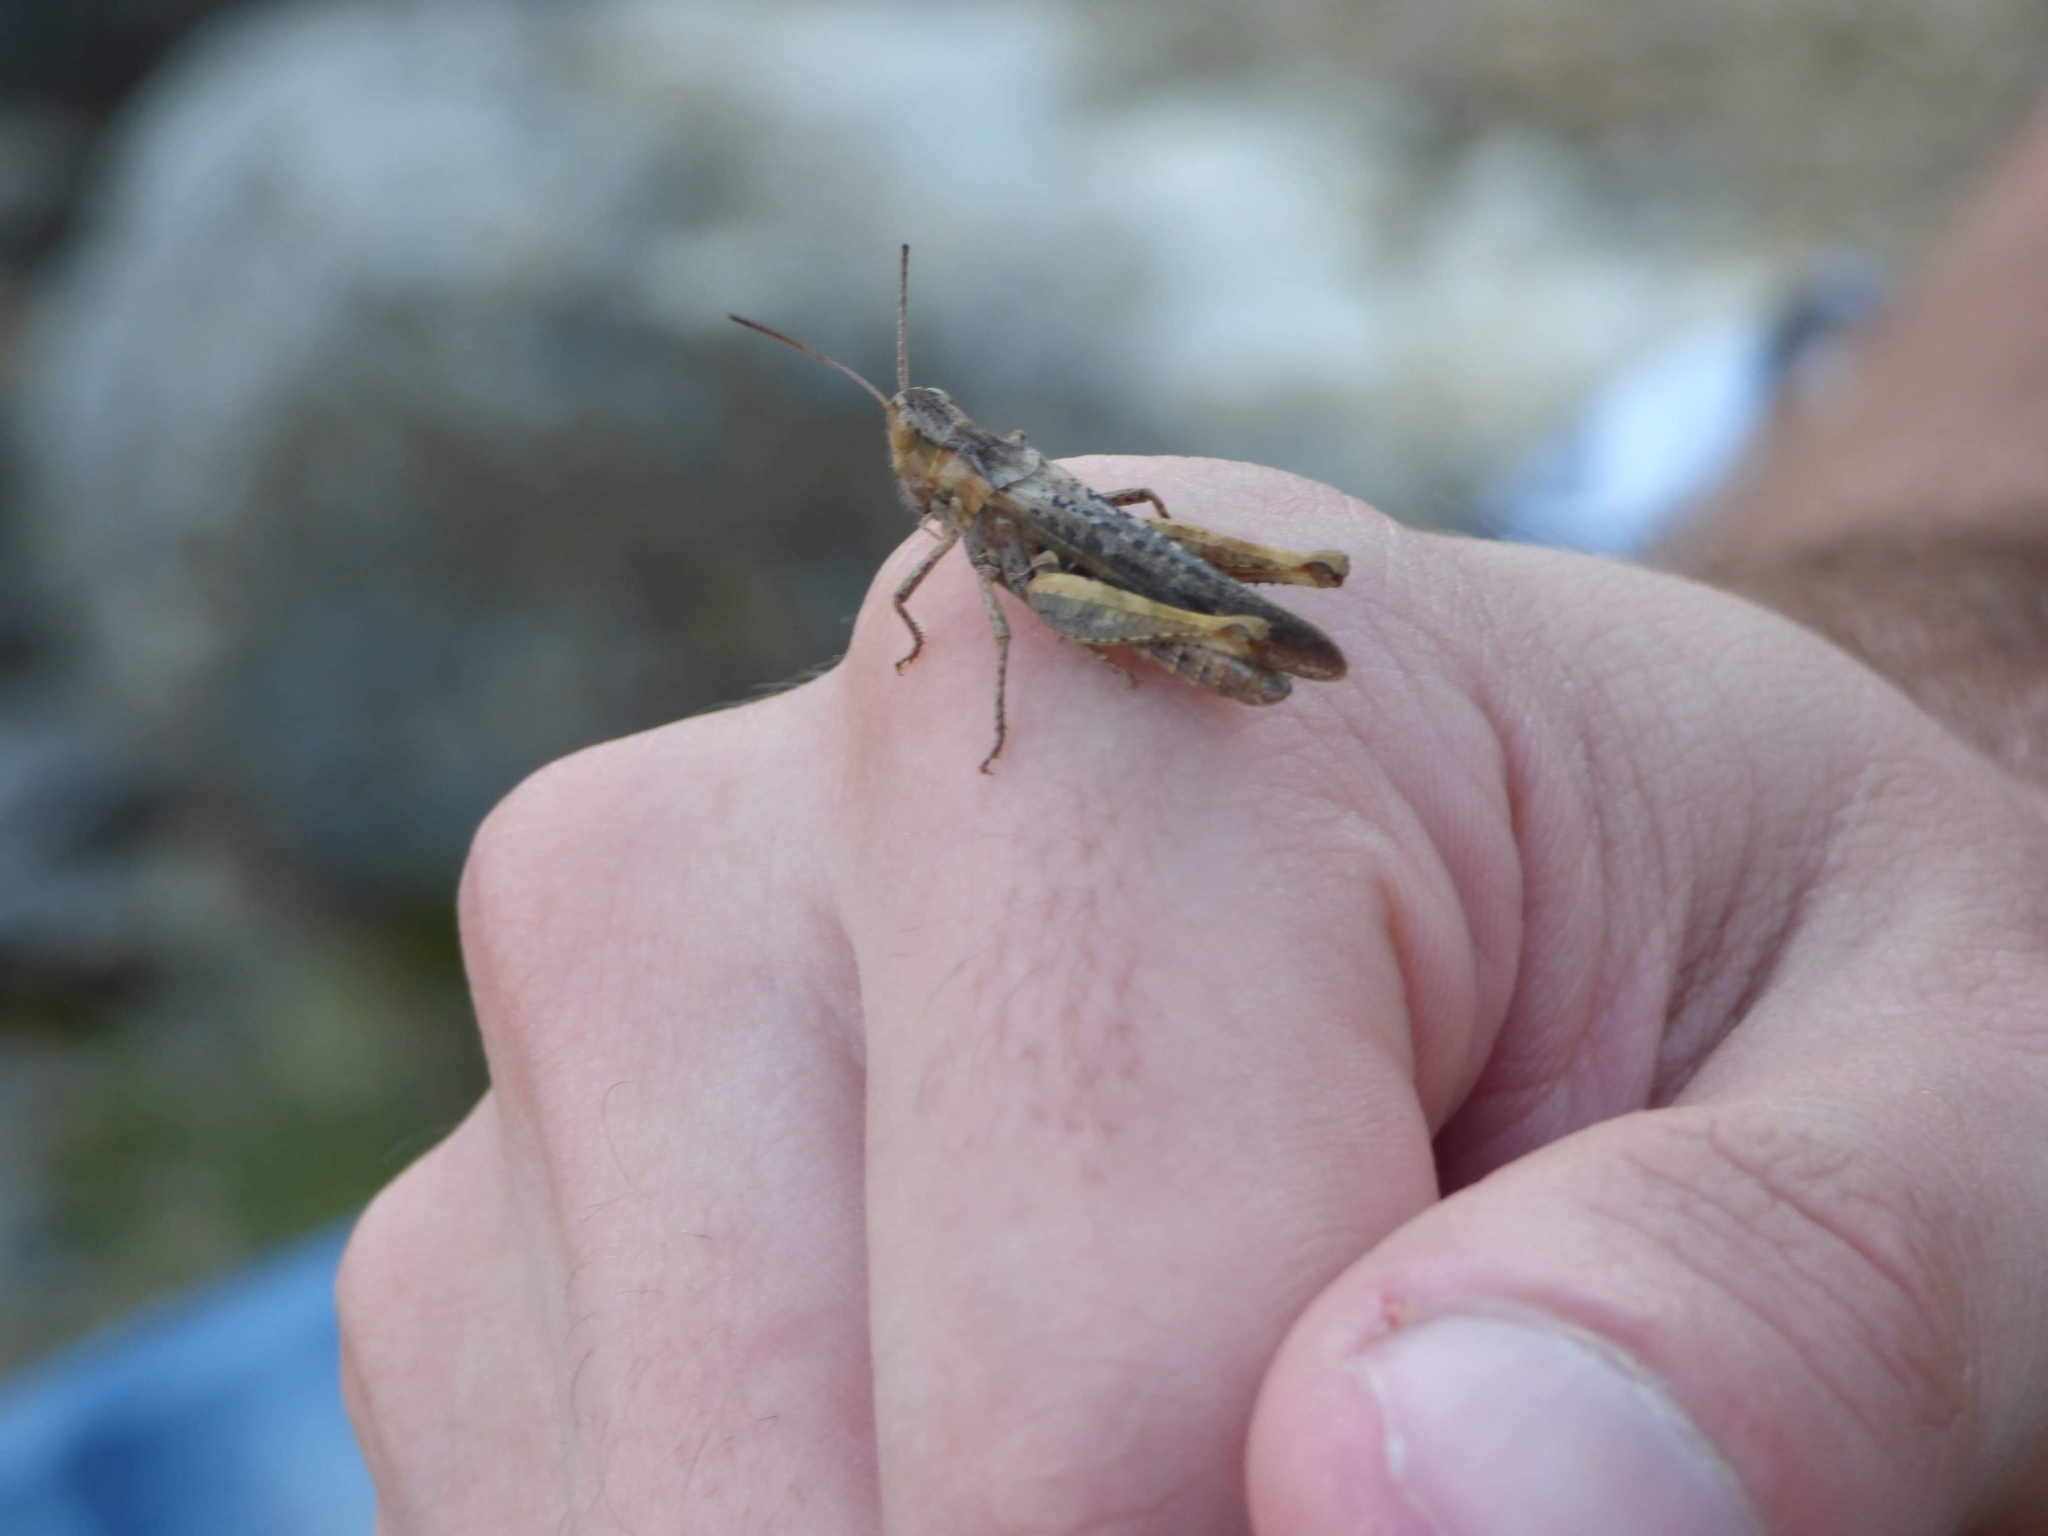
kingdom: Animalia
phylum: Arthropoda
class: Insecta
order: Orthoptera
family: Acrididae
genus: Chorthippus
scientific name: Chorthippus brunneus
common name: Field grasshopper
